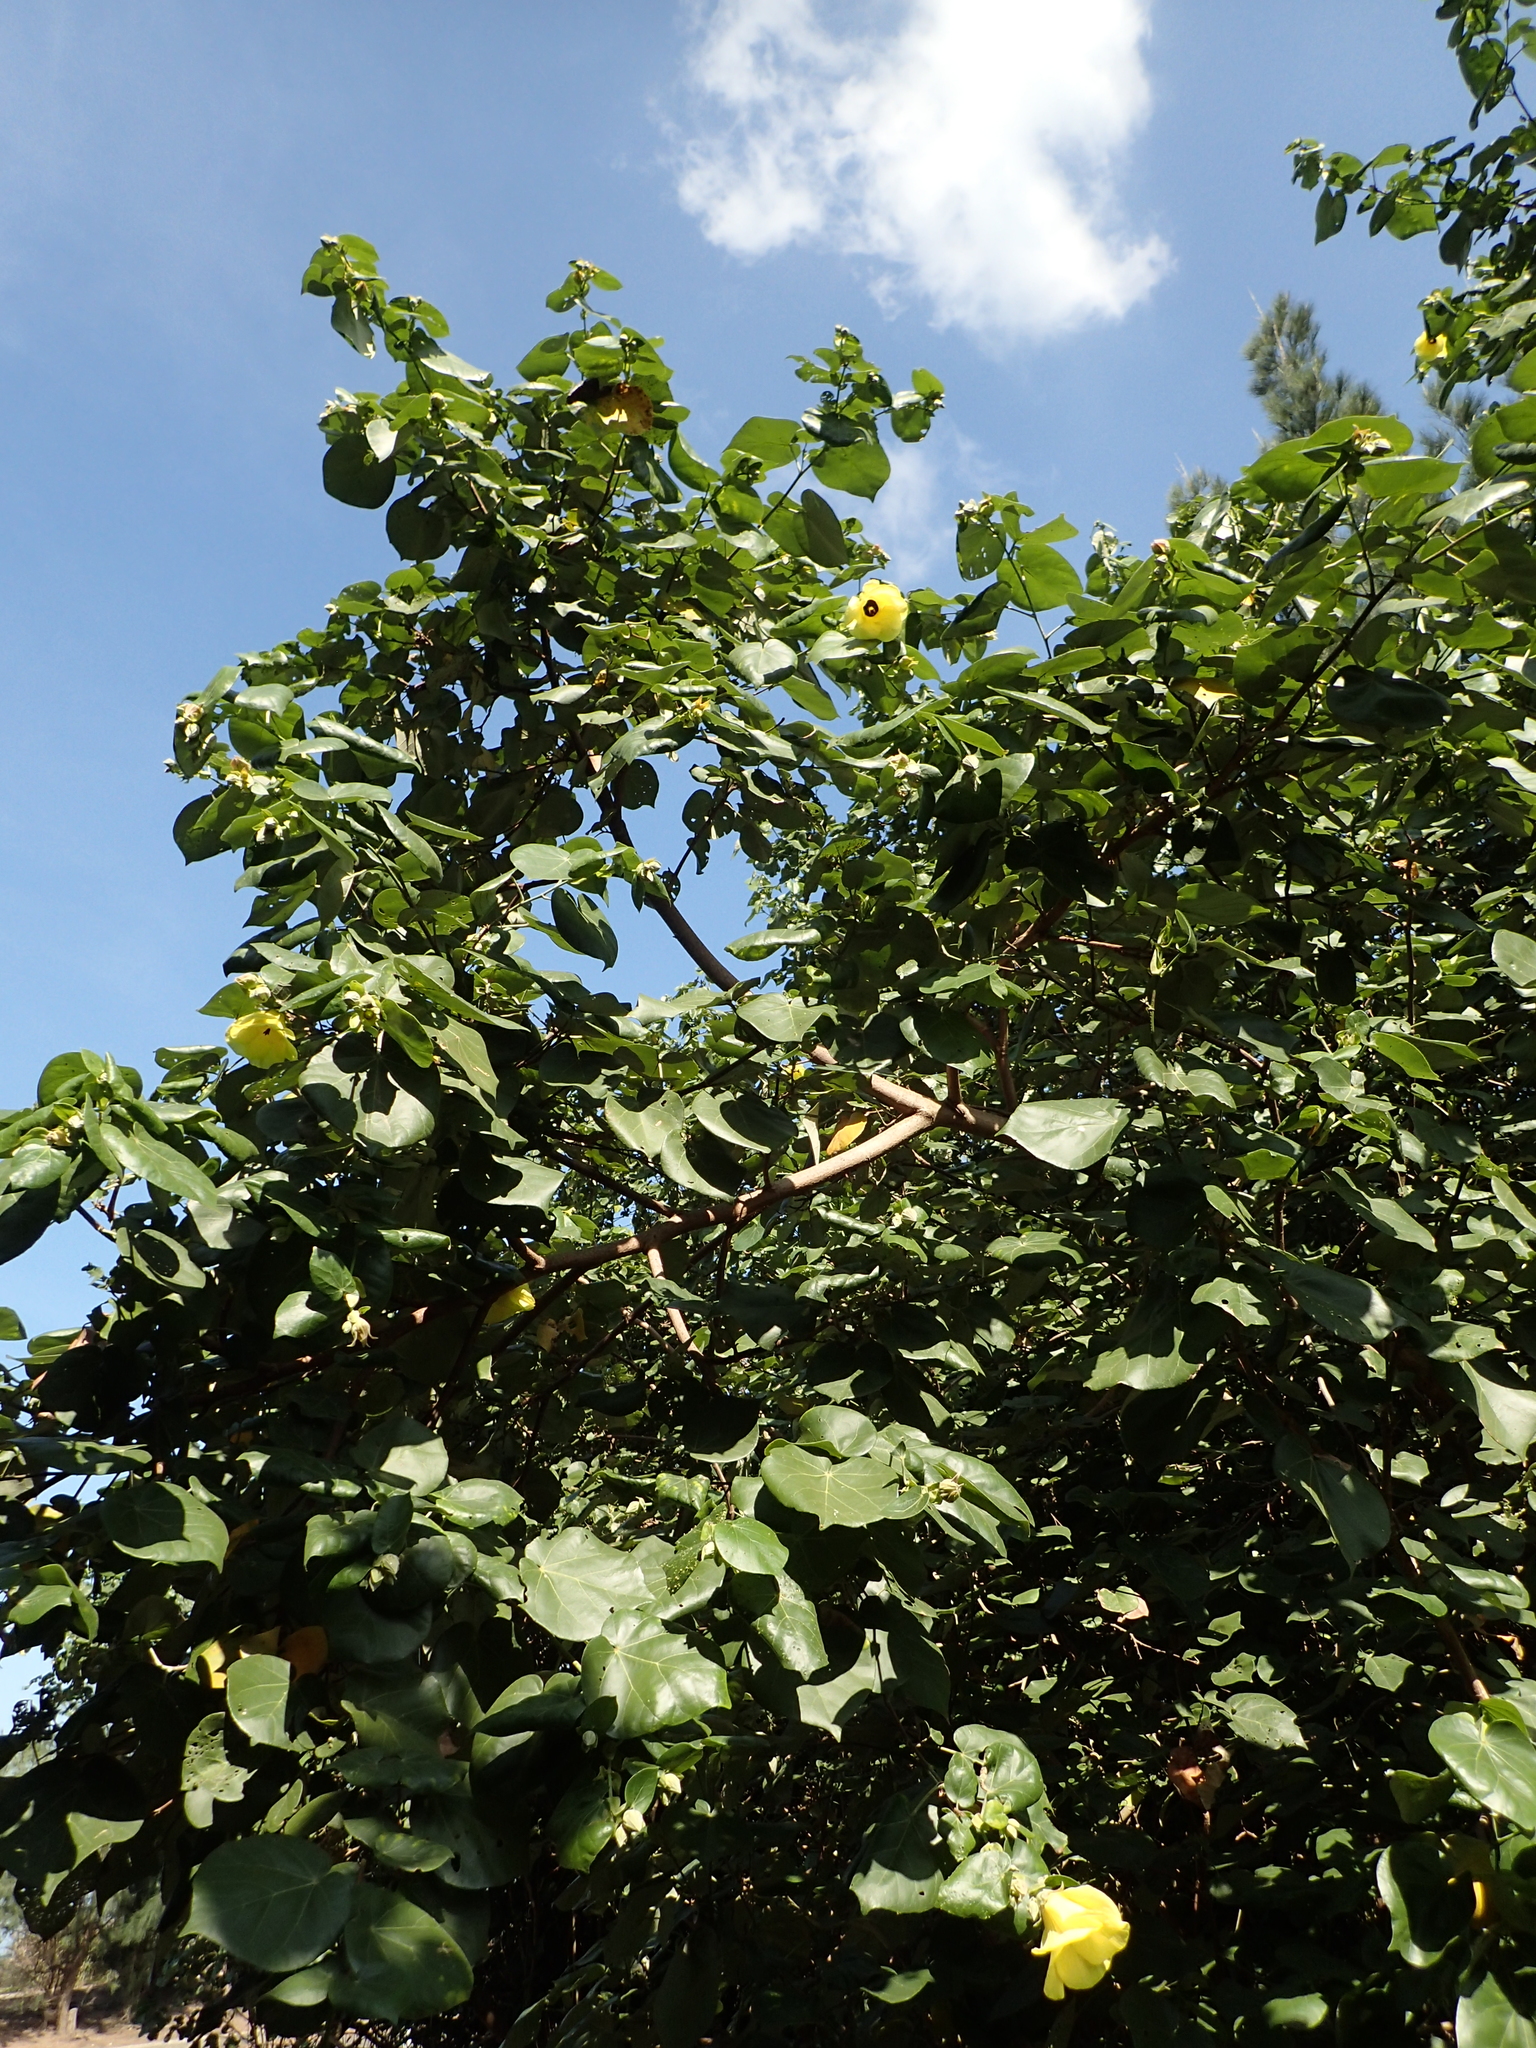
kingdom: Plantae
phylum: Tracheophyta
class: Magnoliopsida
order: Malvales
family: Malvaceae
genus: Talipariti
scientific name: Talipariti tiliaceum
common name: Sea hibiscus
